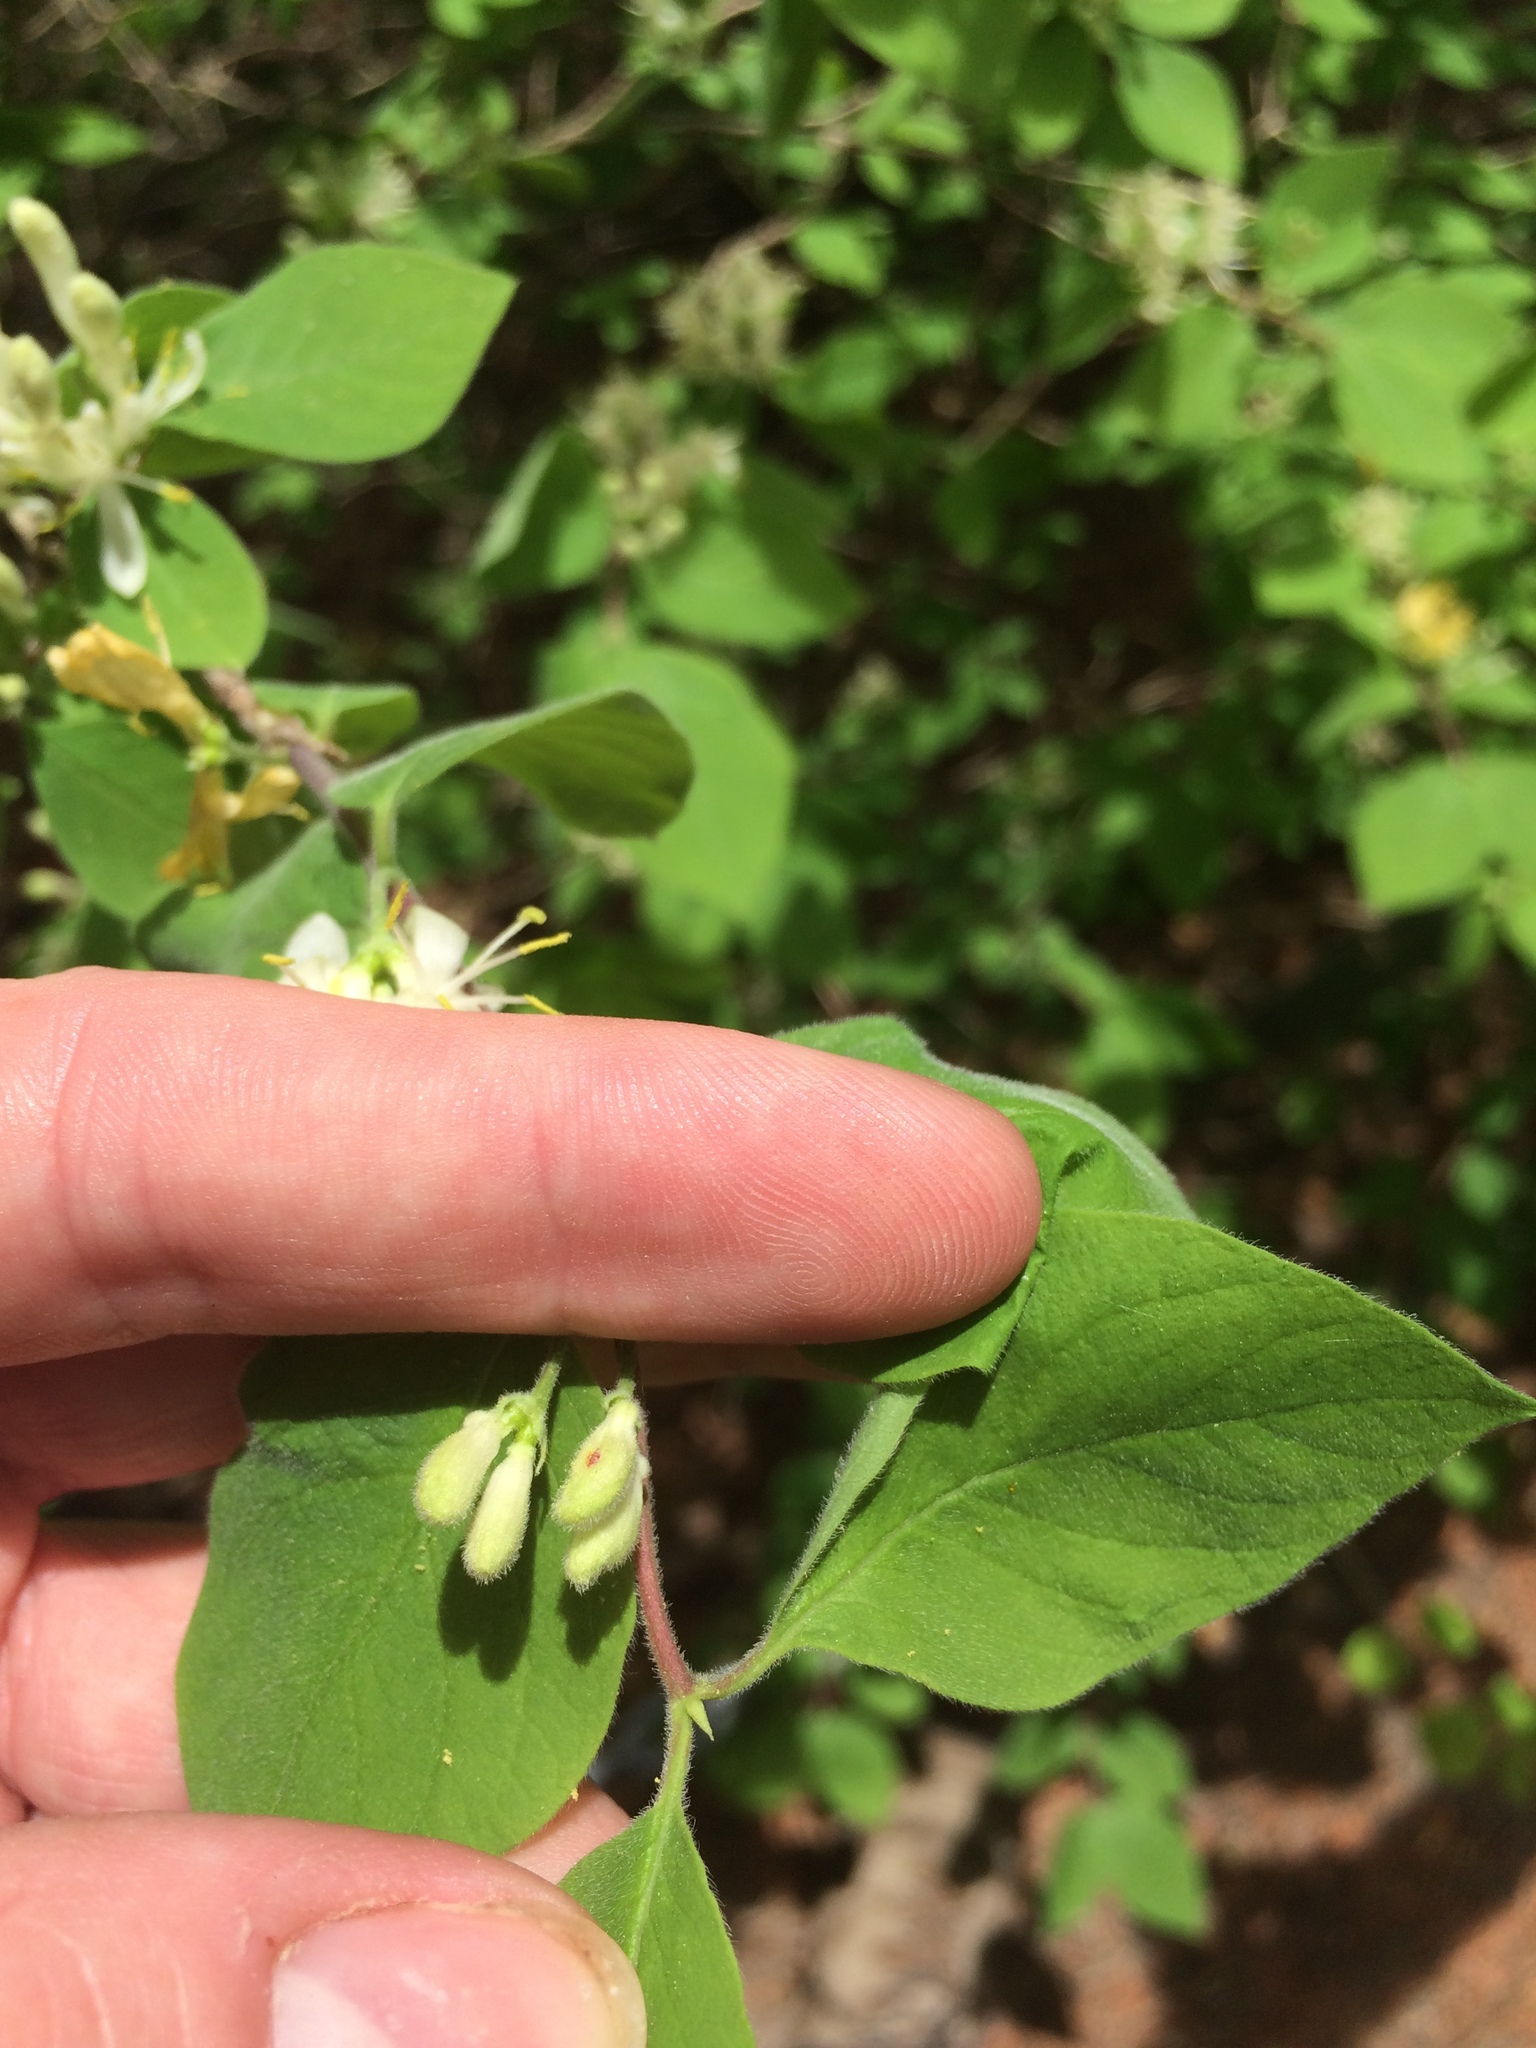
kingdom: Plantae
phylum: Tracheophyta
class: Magnoliopsida
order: Dipsacales
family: Caprifoliaceae
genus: Lonicera
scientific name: Lonicera xylosteum
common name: Fly honeysuckle
